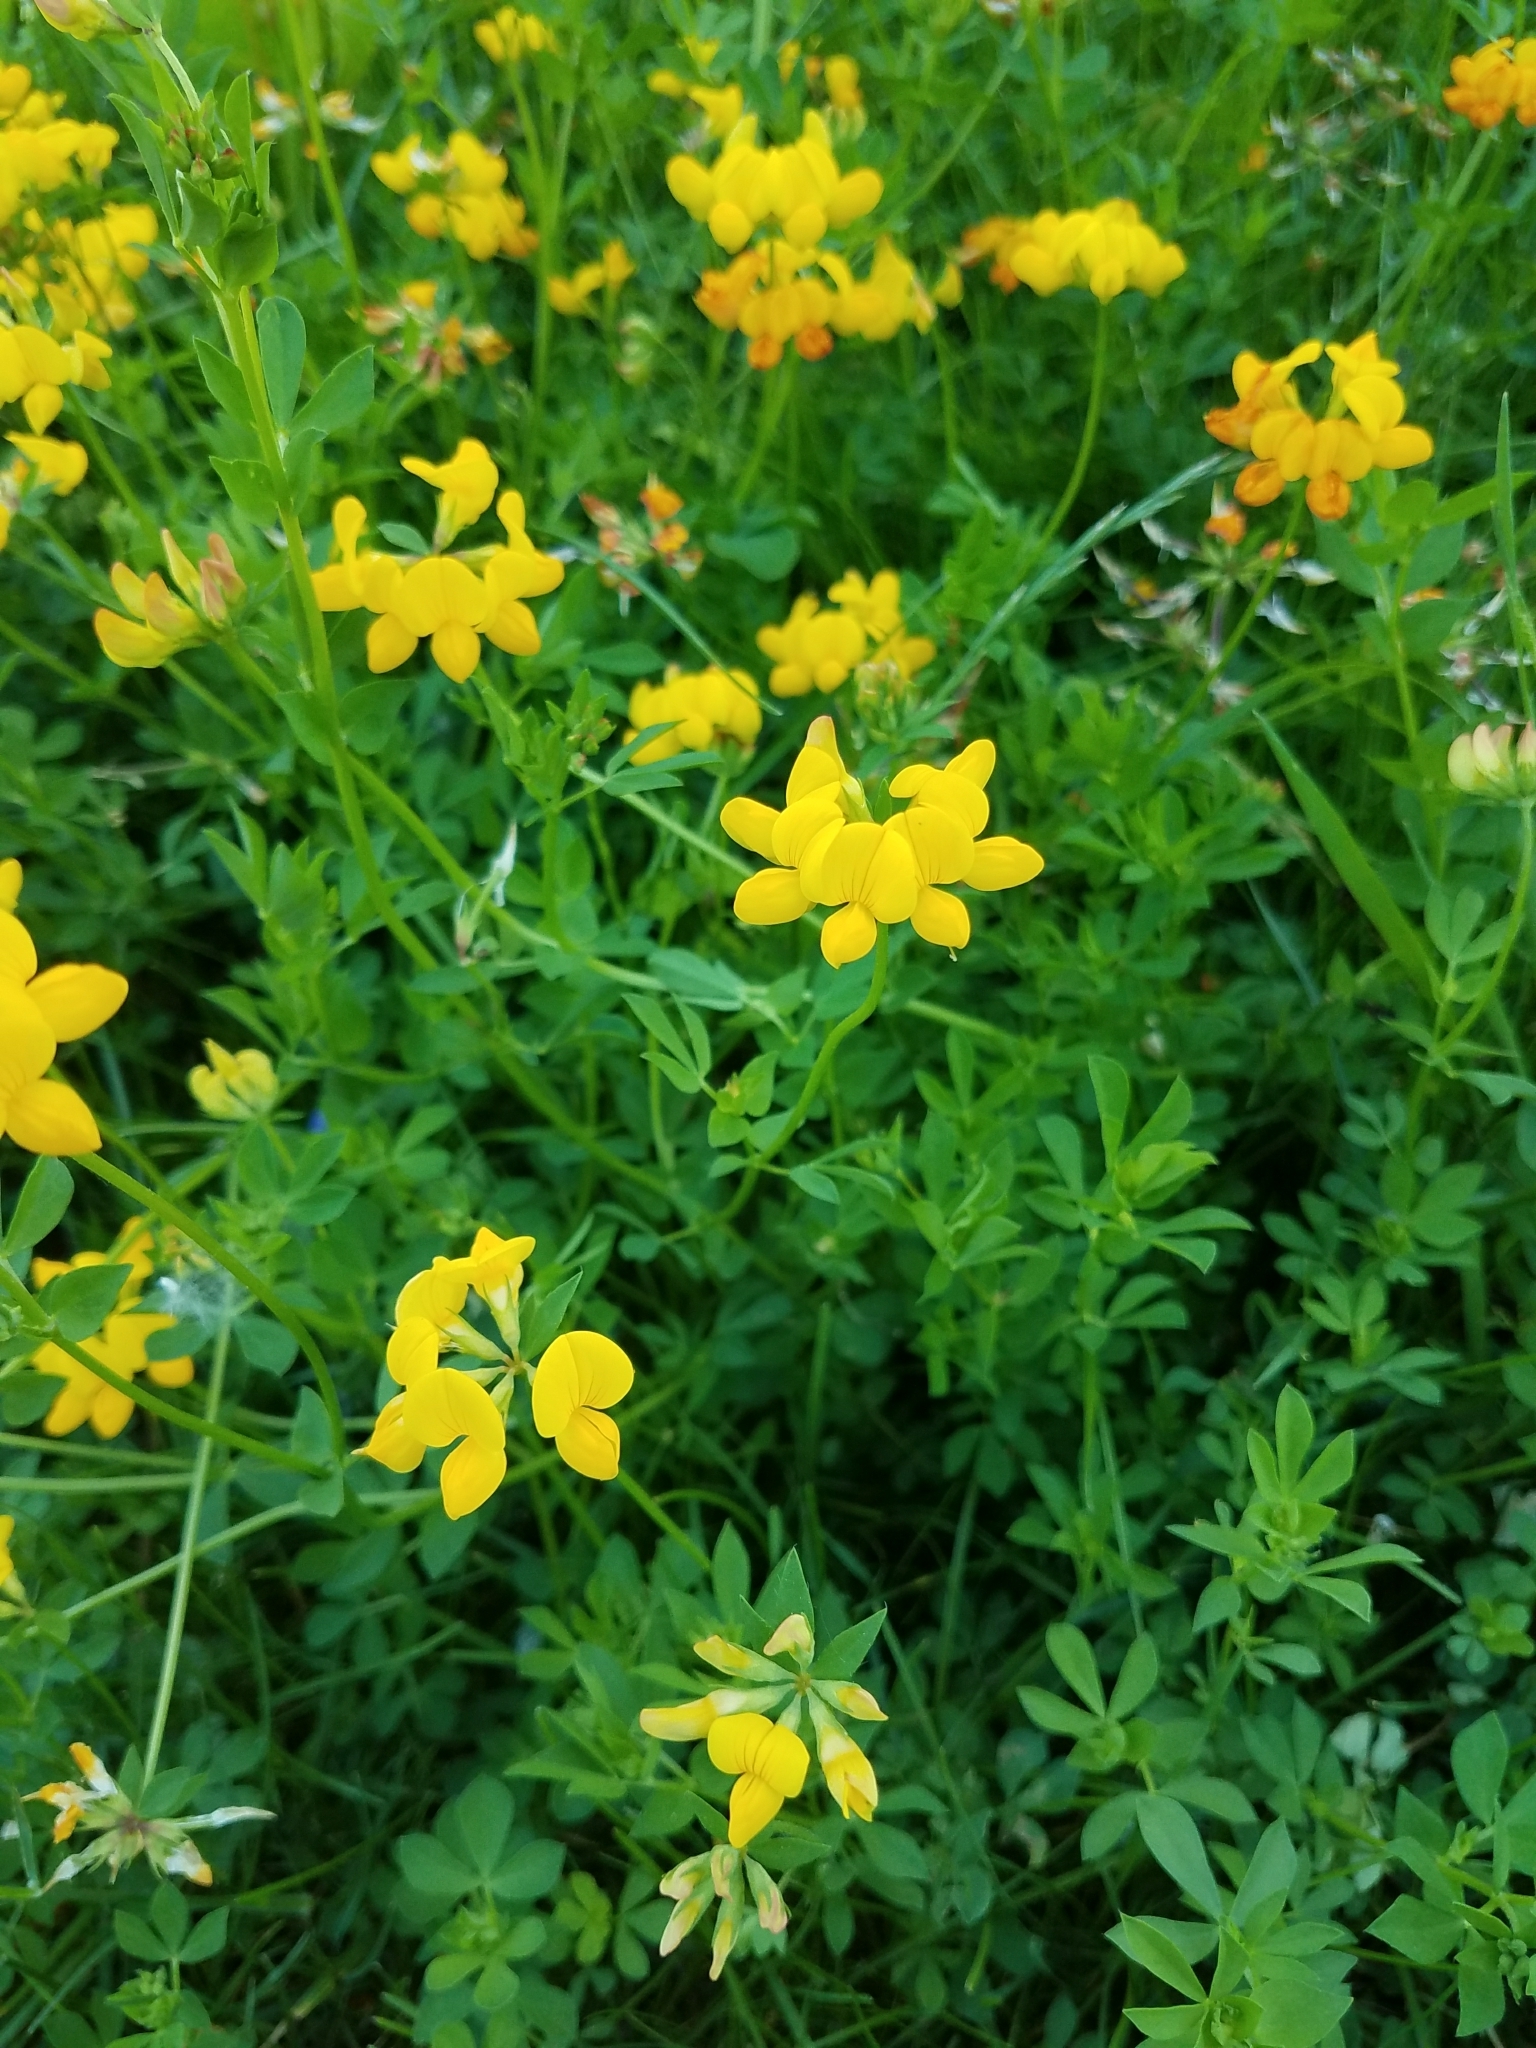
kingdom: Plantae
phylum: Tracheophyta
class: Magnoliopsida
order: Fabales
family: Fabaceae
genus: Lotus
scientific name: Lotus corniculatus
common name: Common bird's-foot-trefoil
